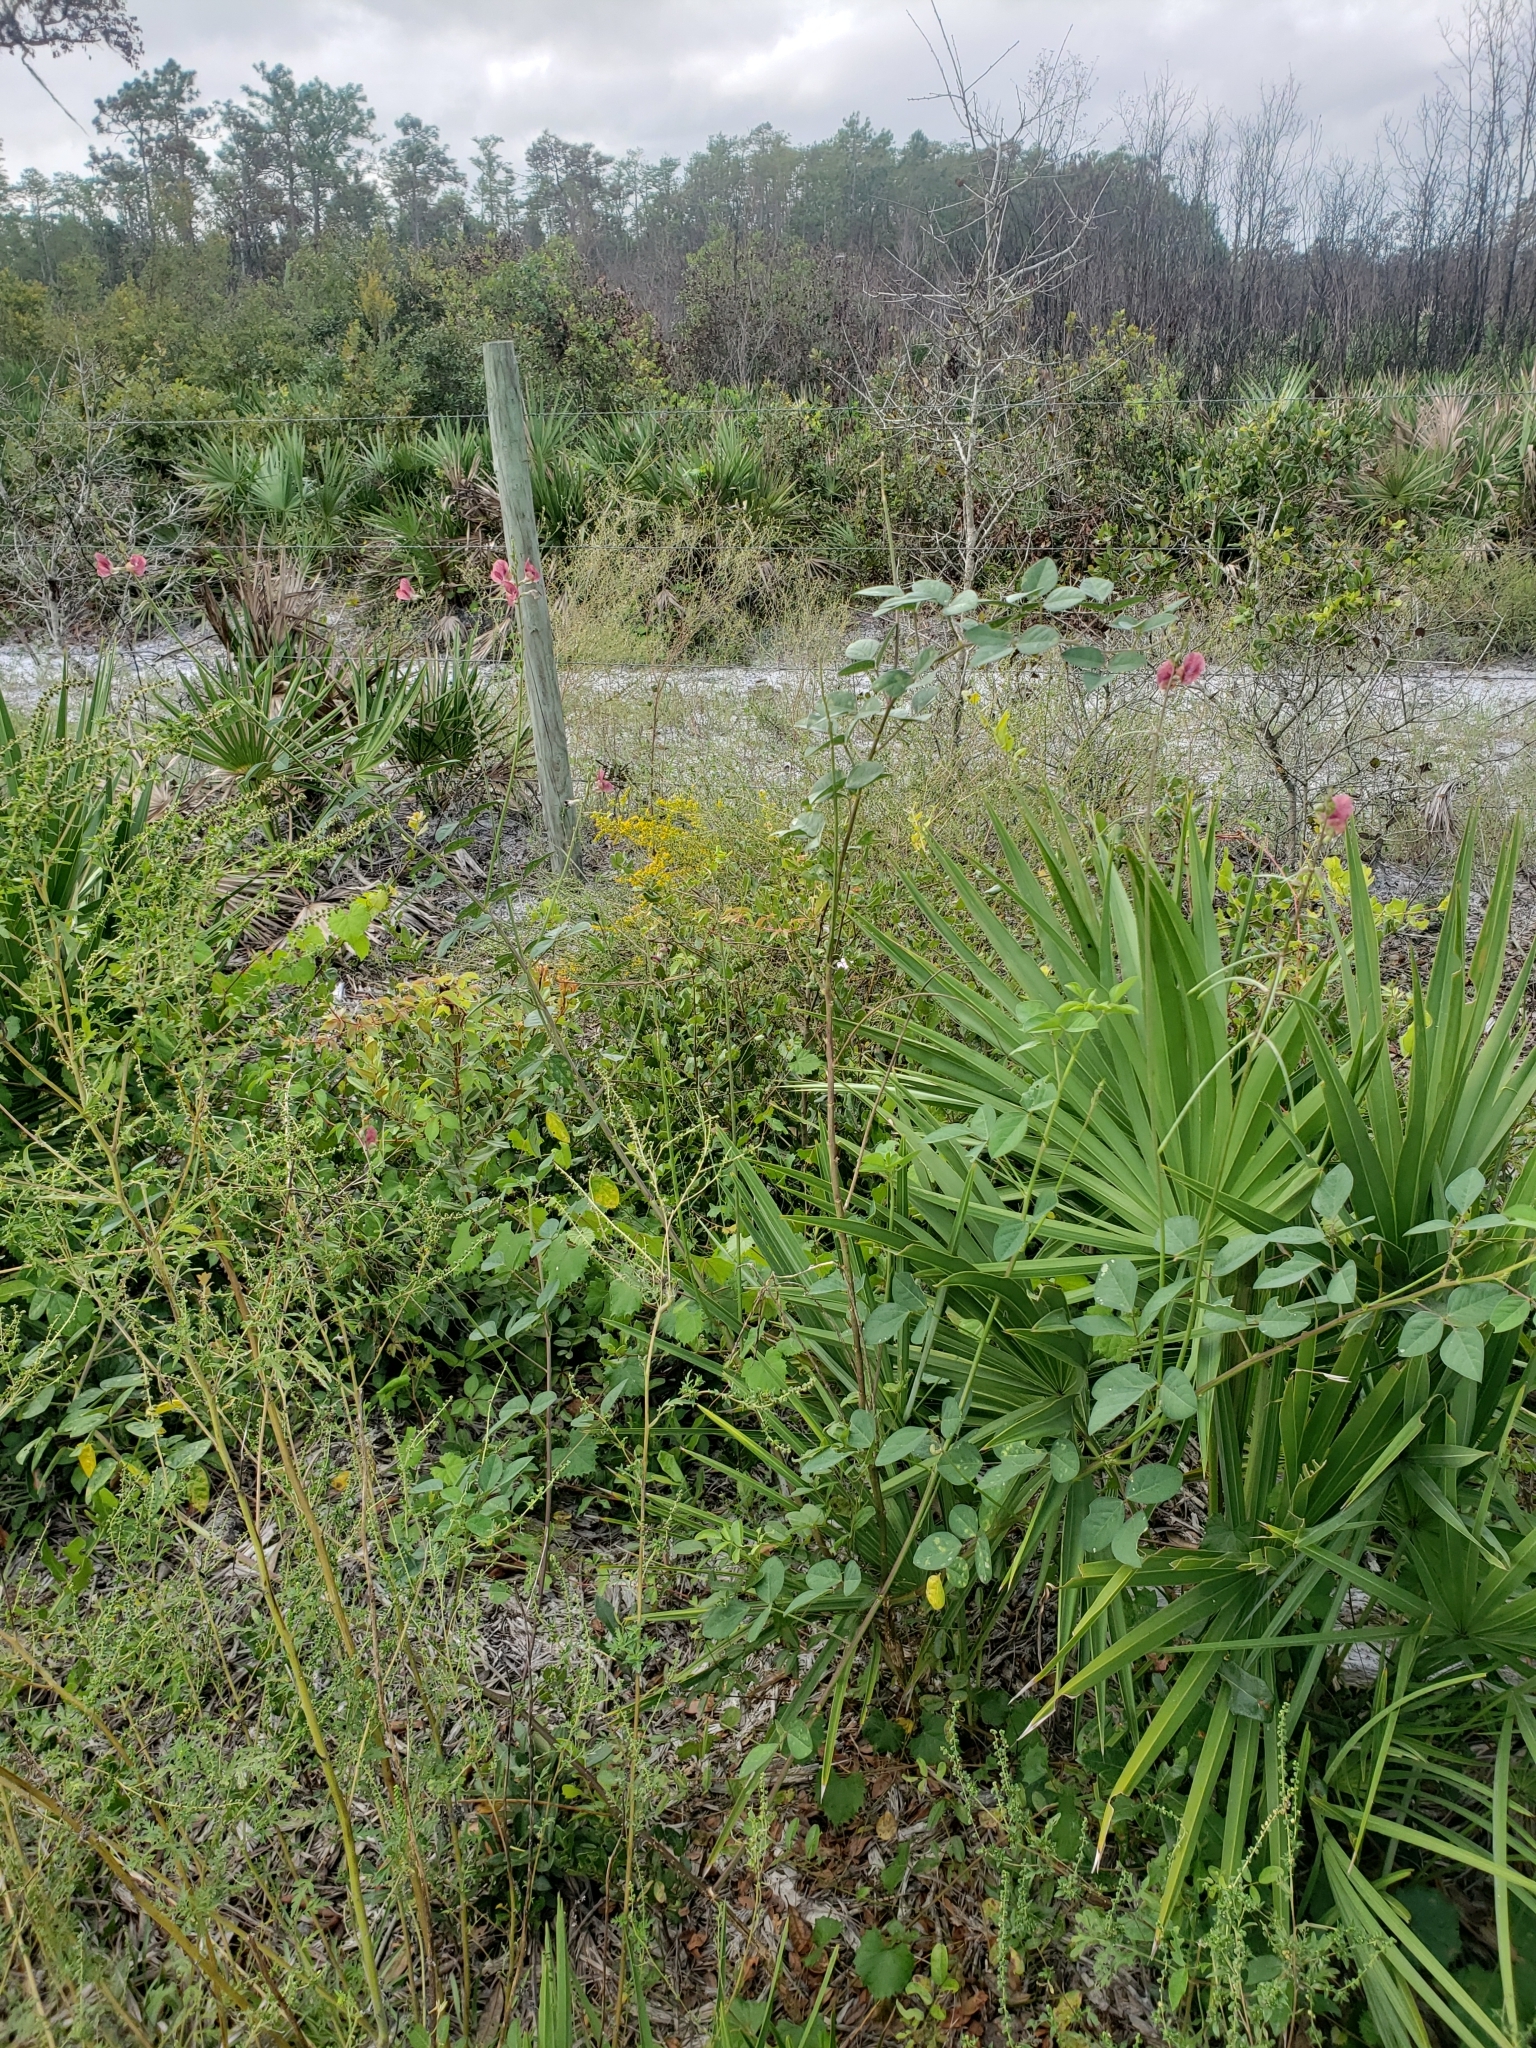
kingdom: Plantae
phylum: Tracheophyta
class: Magnoliopsida
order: Fabales
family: Fabaceae
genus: Macroptilium
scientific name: Macroptilium lathyroides
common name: Wild bushbean
